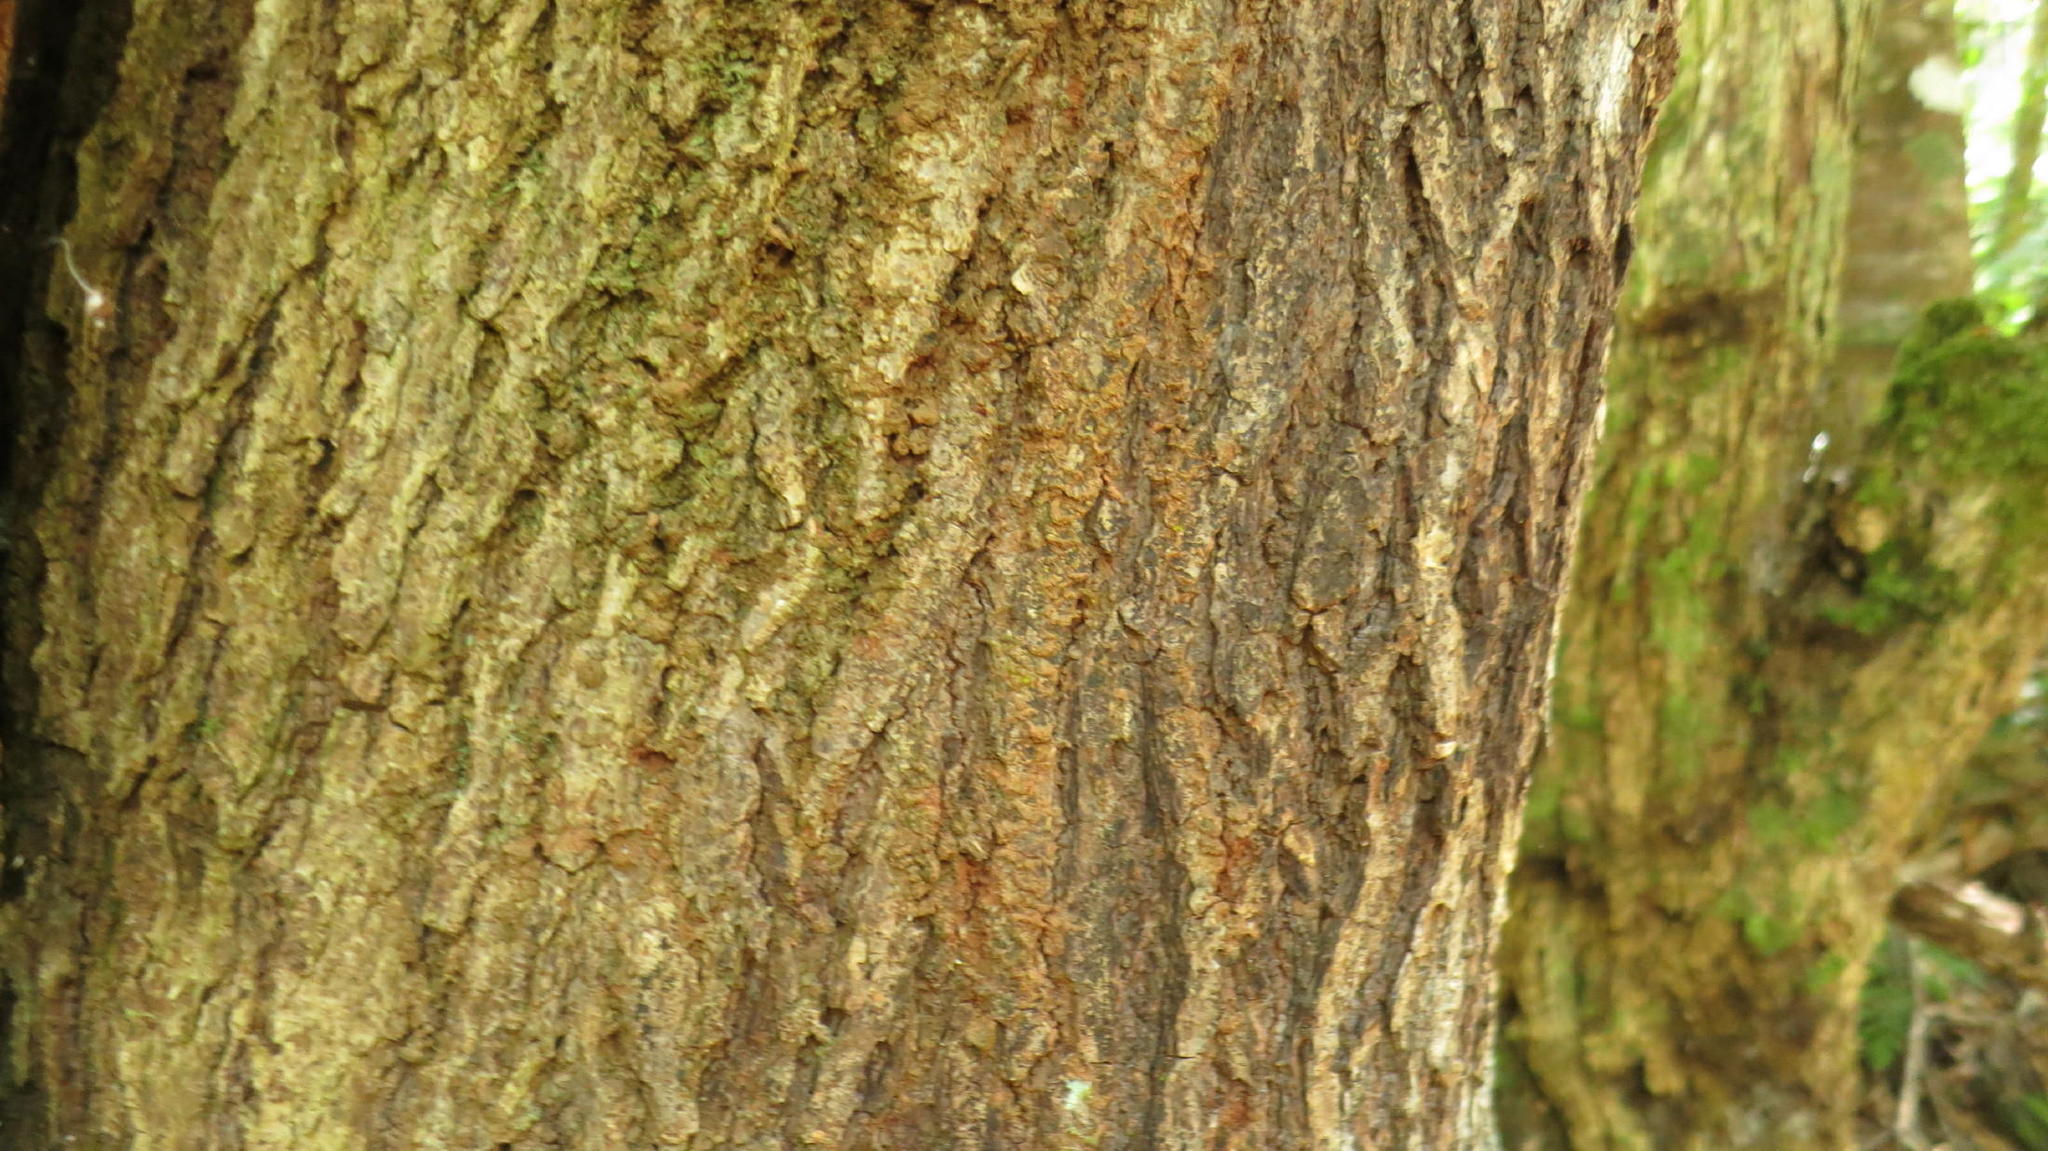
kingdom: Plantae
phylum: Tracheophyta
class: Magnoliopsida
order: Laurales
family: Lauraceae
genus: Ocotea
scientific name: Ocotea bullata
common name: Black stinkwood
